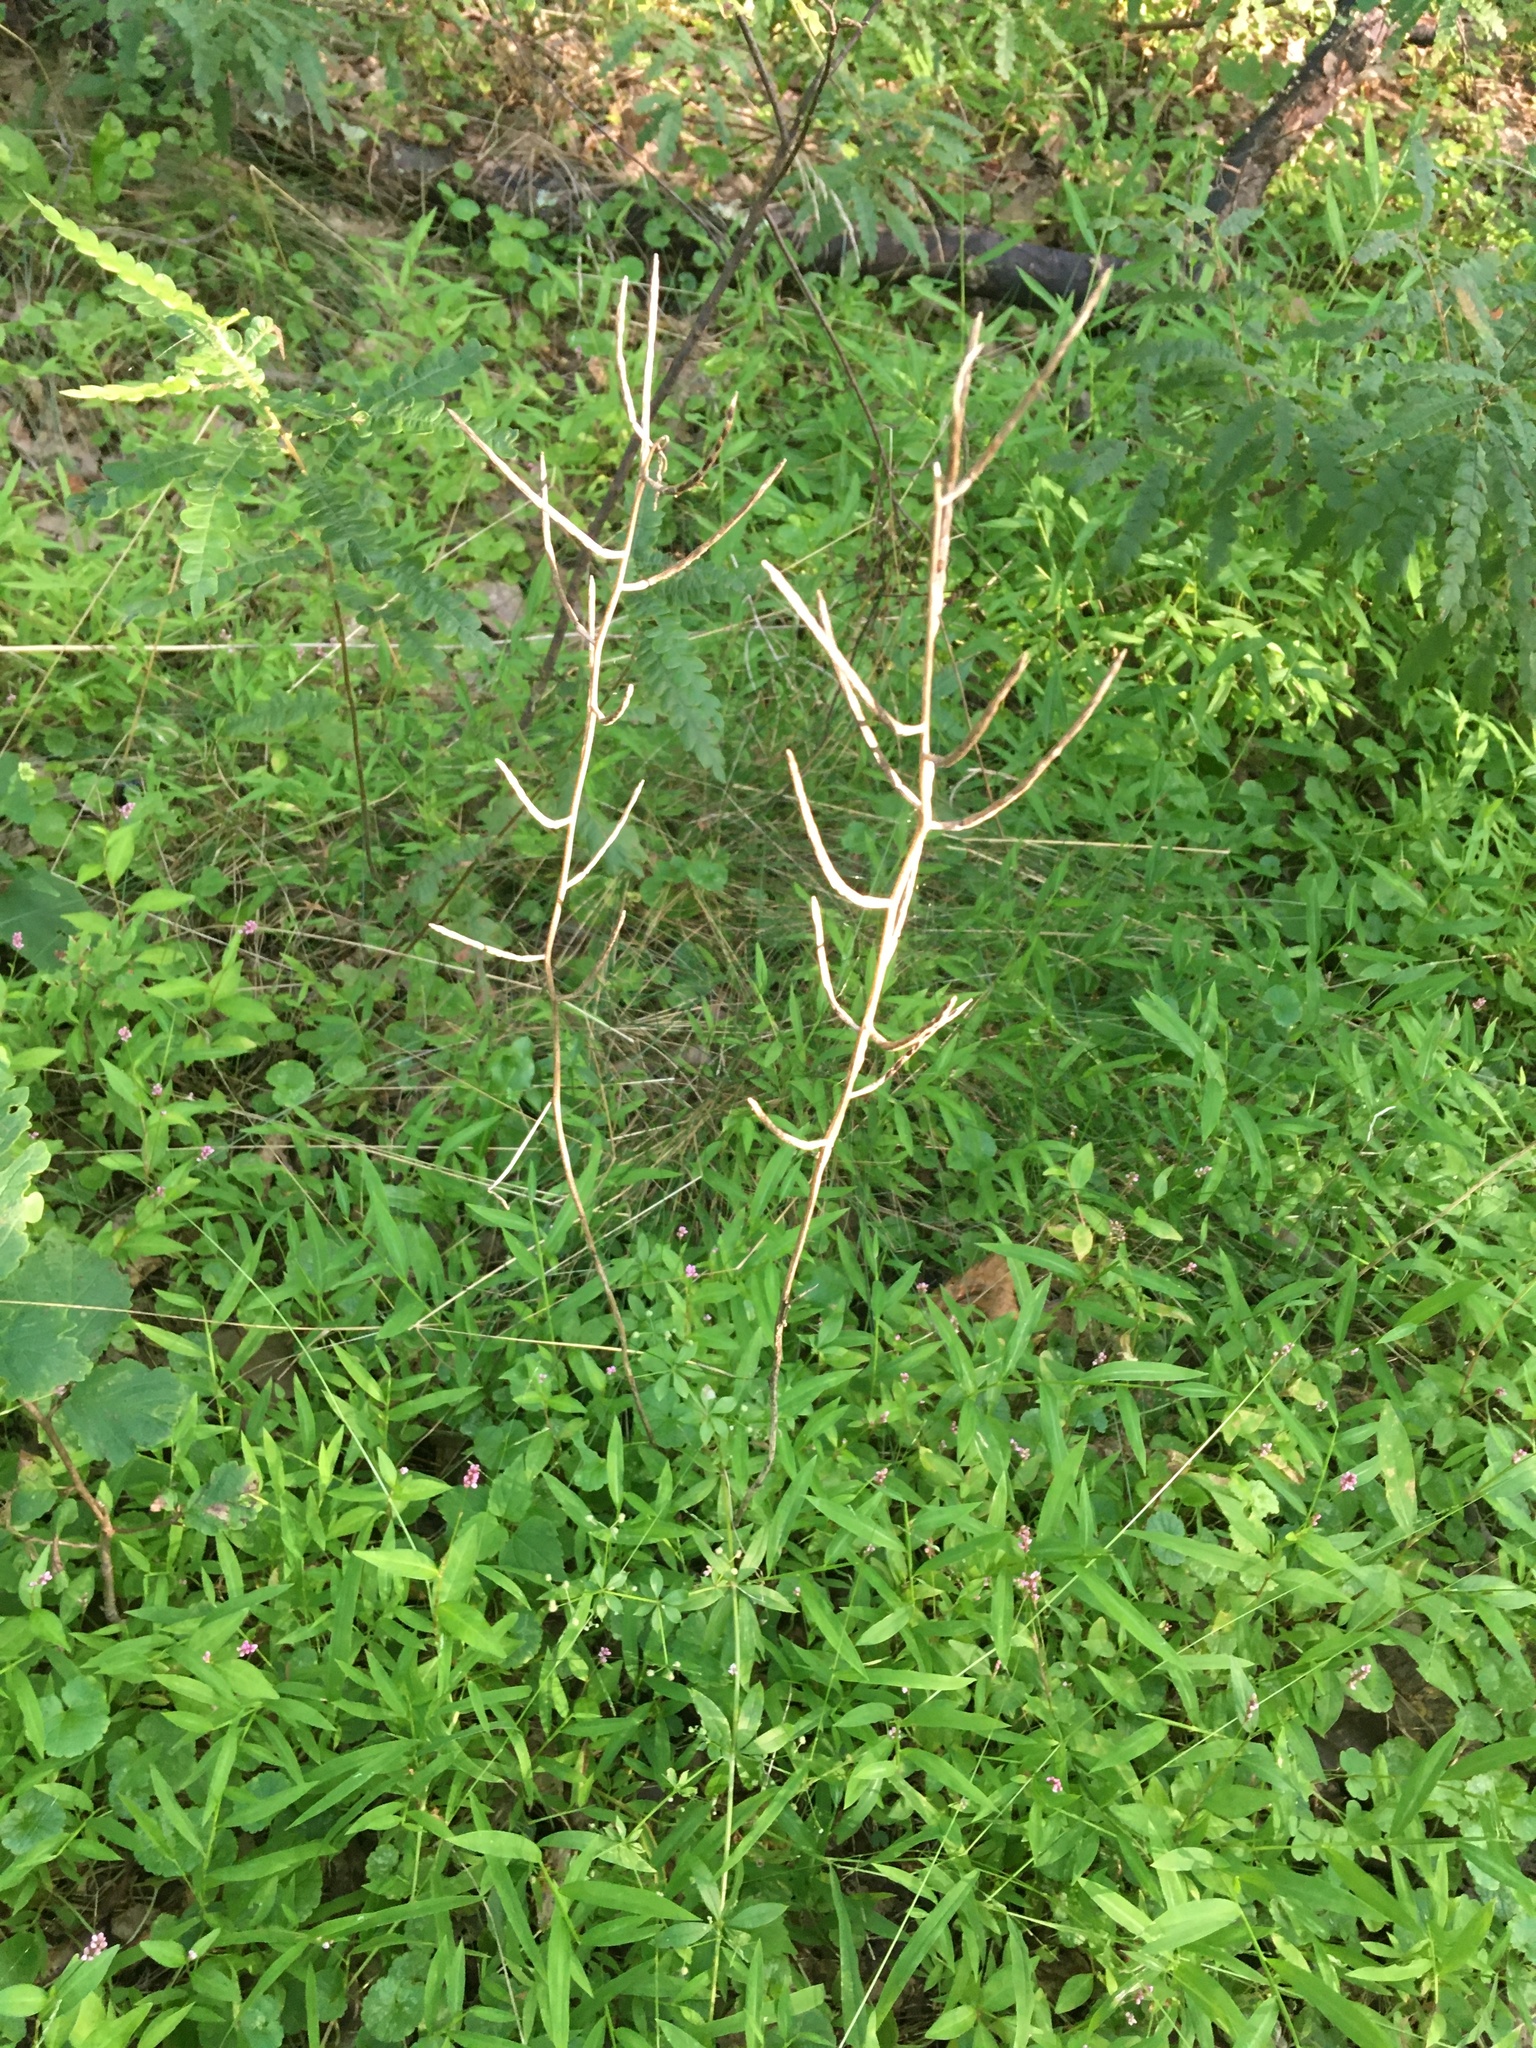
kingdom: Plantae
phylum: Tracheophyta
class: Magnoliopsida
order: Brassicales
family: Brassicaceae
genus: Alliaria
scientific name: Alliaria petiolata
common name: Garlic mustard
